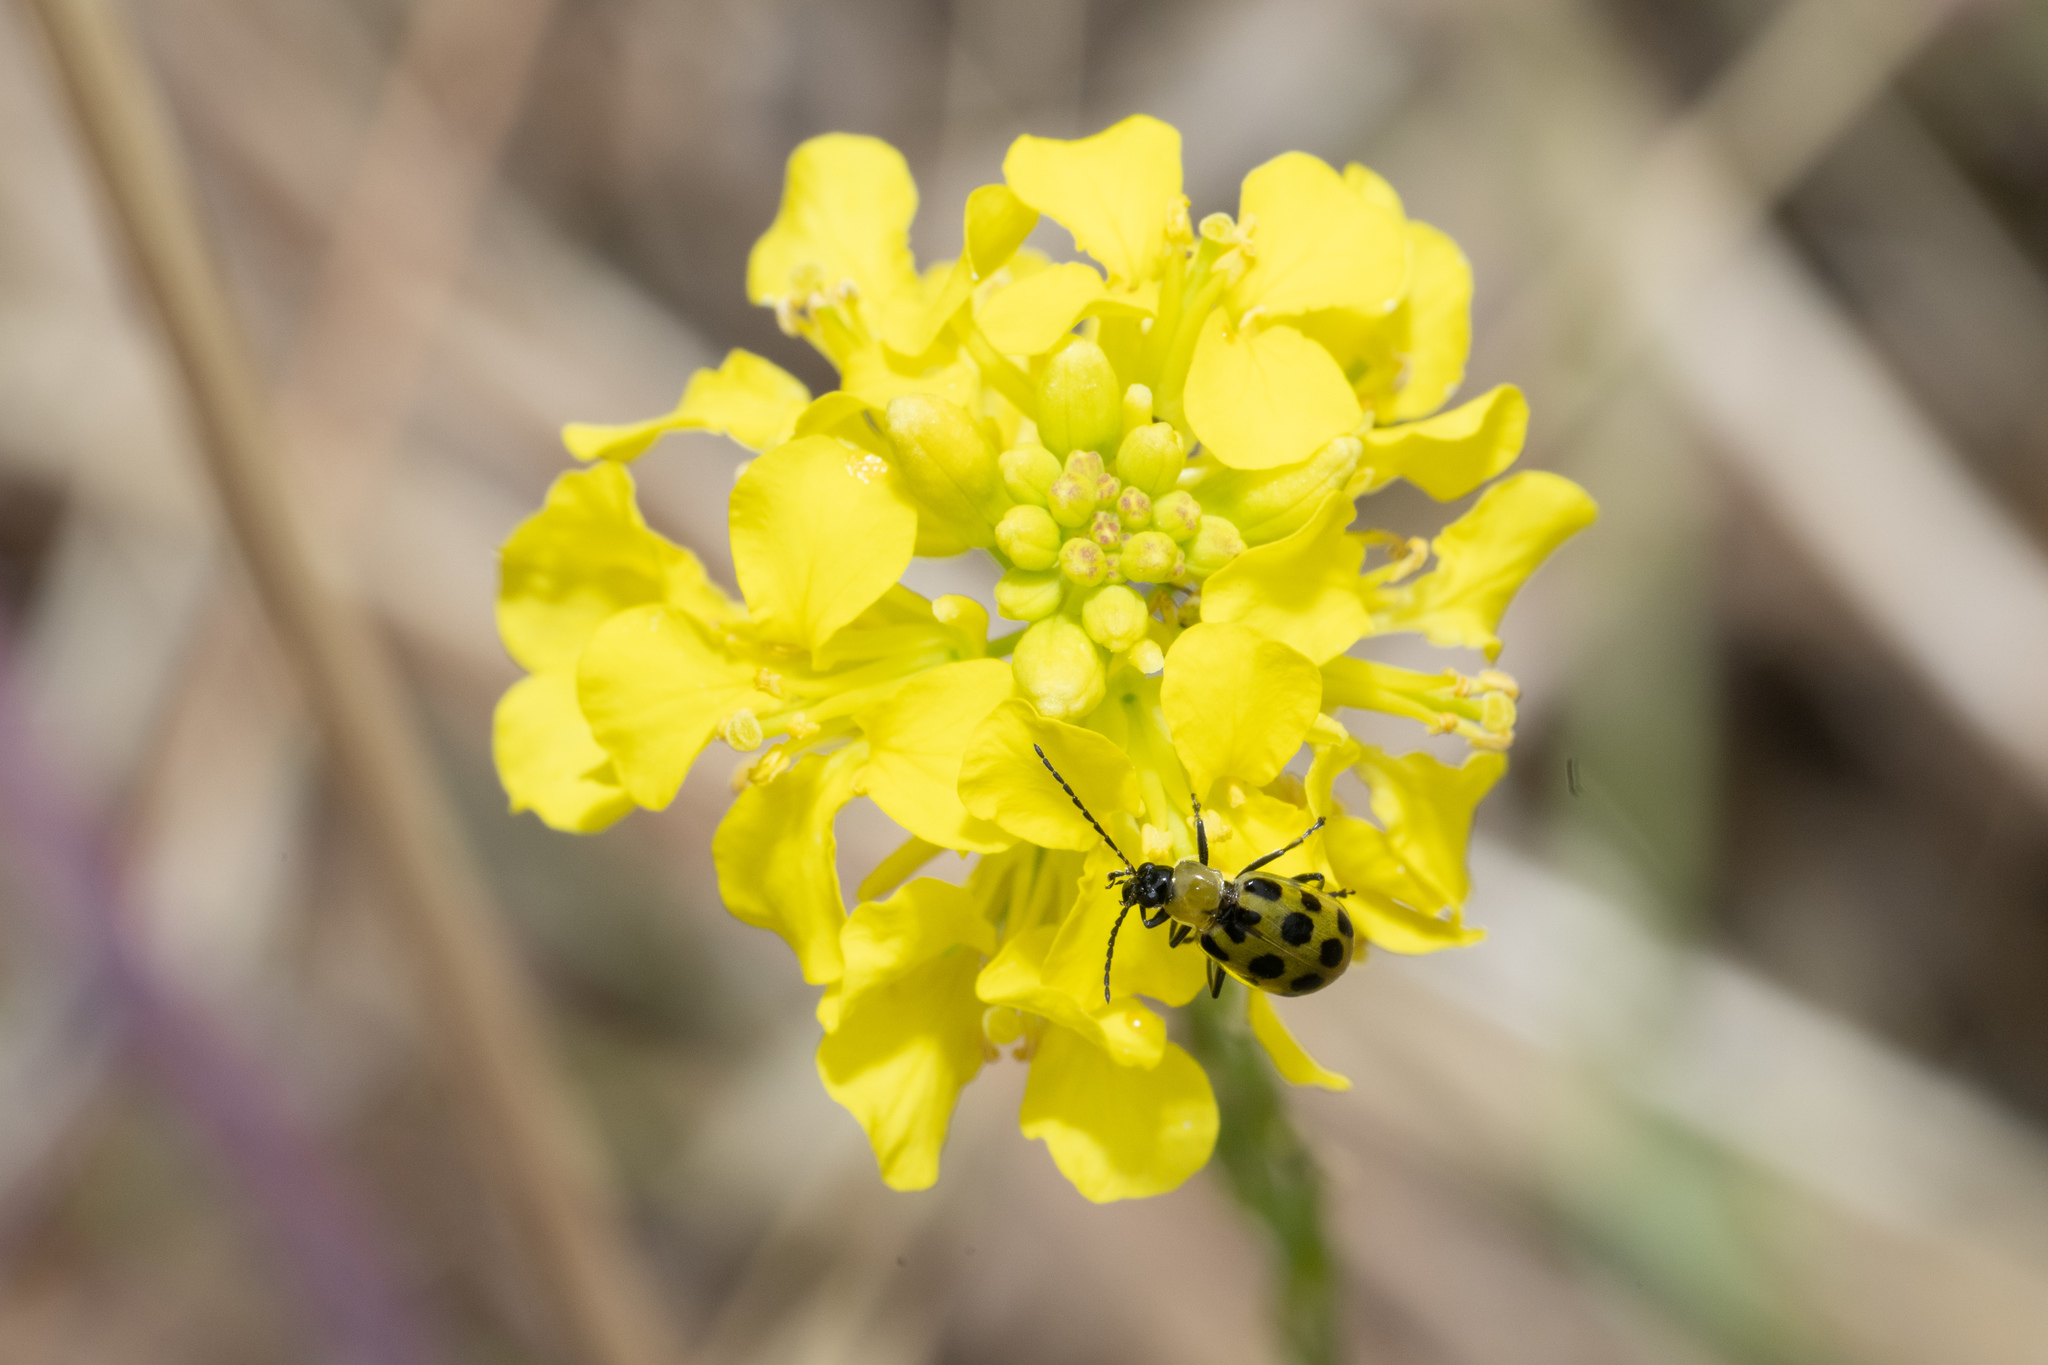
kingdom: Animalia
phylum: Arthropoda
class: Insecta
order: Coleoptera
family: Chrysomelidae
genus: Diabrotica
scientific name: Diabrotica undecimpunctata
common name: Spotted cucumber beetle
